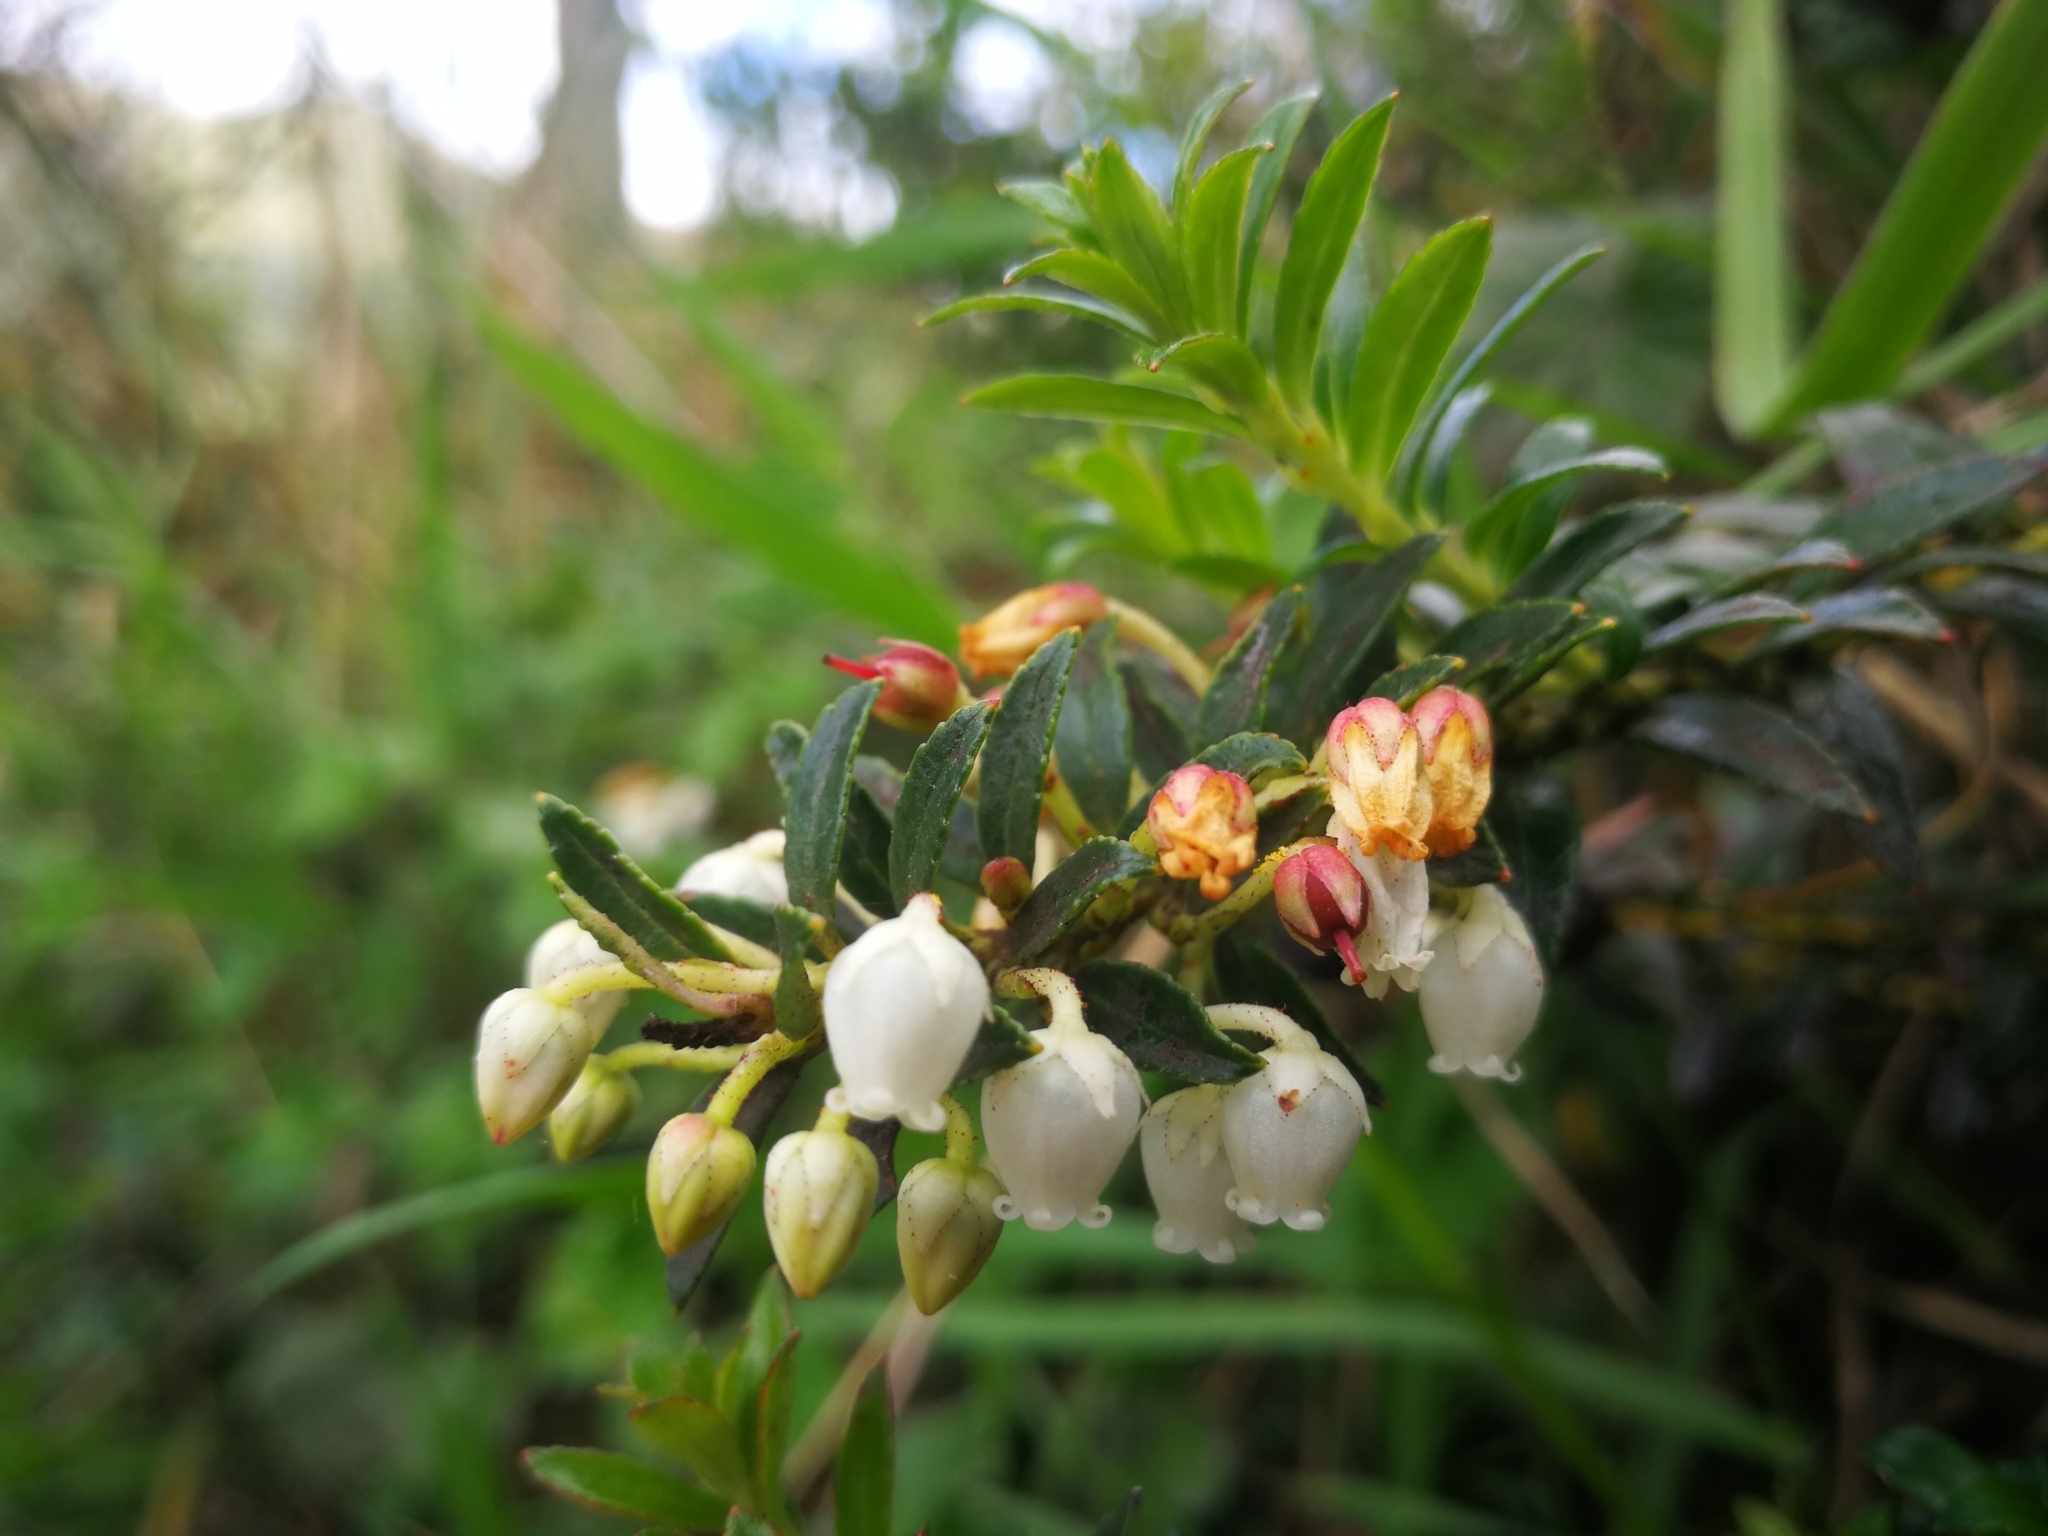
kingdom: Plantae
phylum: Tracheophyta
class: Magnoliopsida
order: Ericales
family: Ericaceae
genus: Gaultheria
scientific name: Gaultheria myrsinoides
